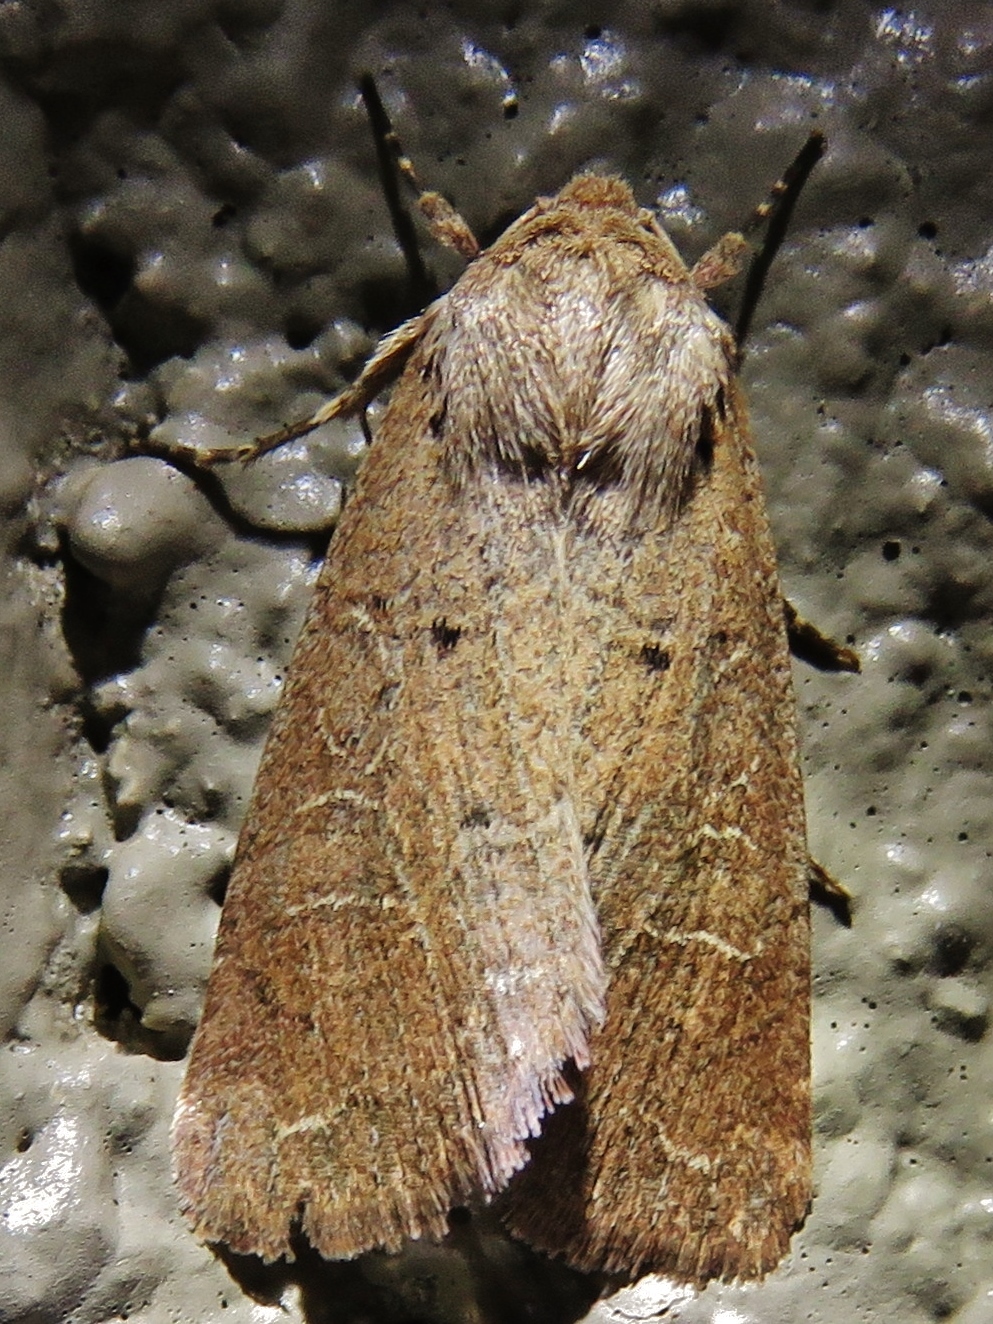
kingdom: Animalia
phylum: Arthropoda
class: Insecta
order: Lepidoptera
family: Noctuidae
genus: Kocakina
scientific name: Kocakina fidelis
